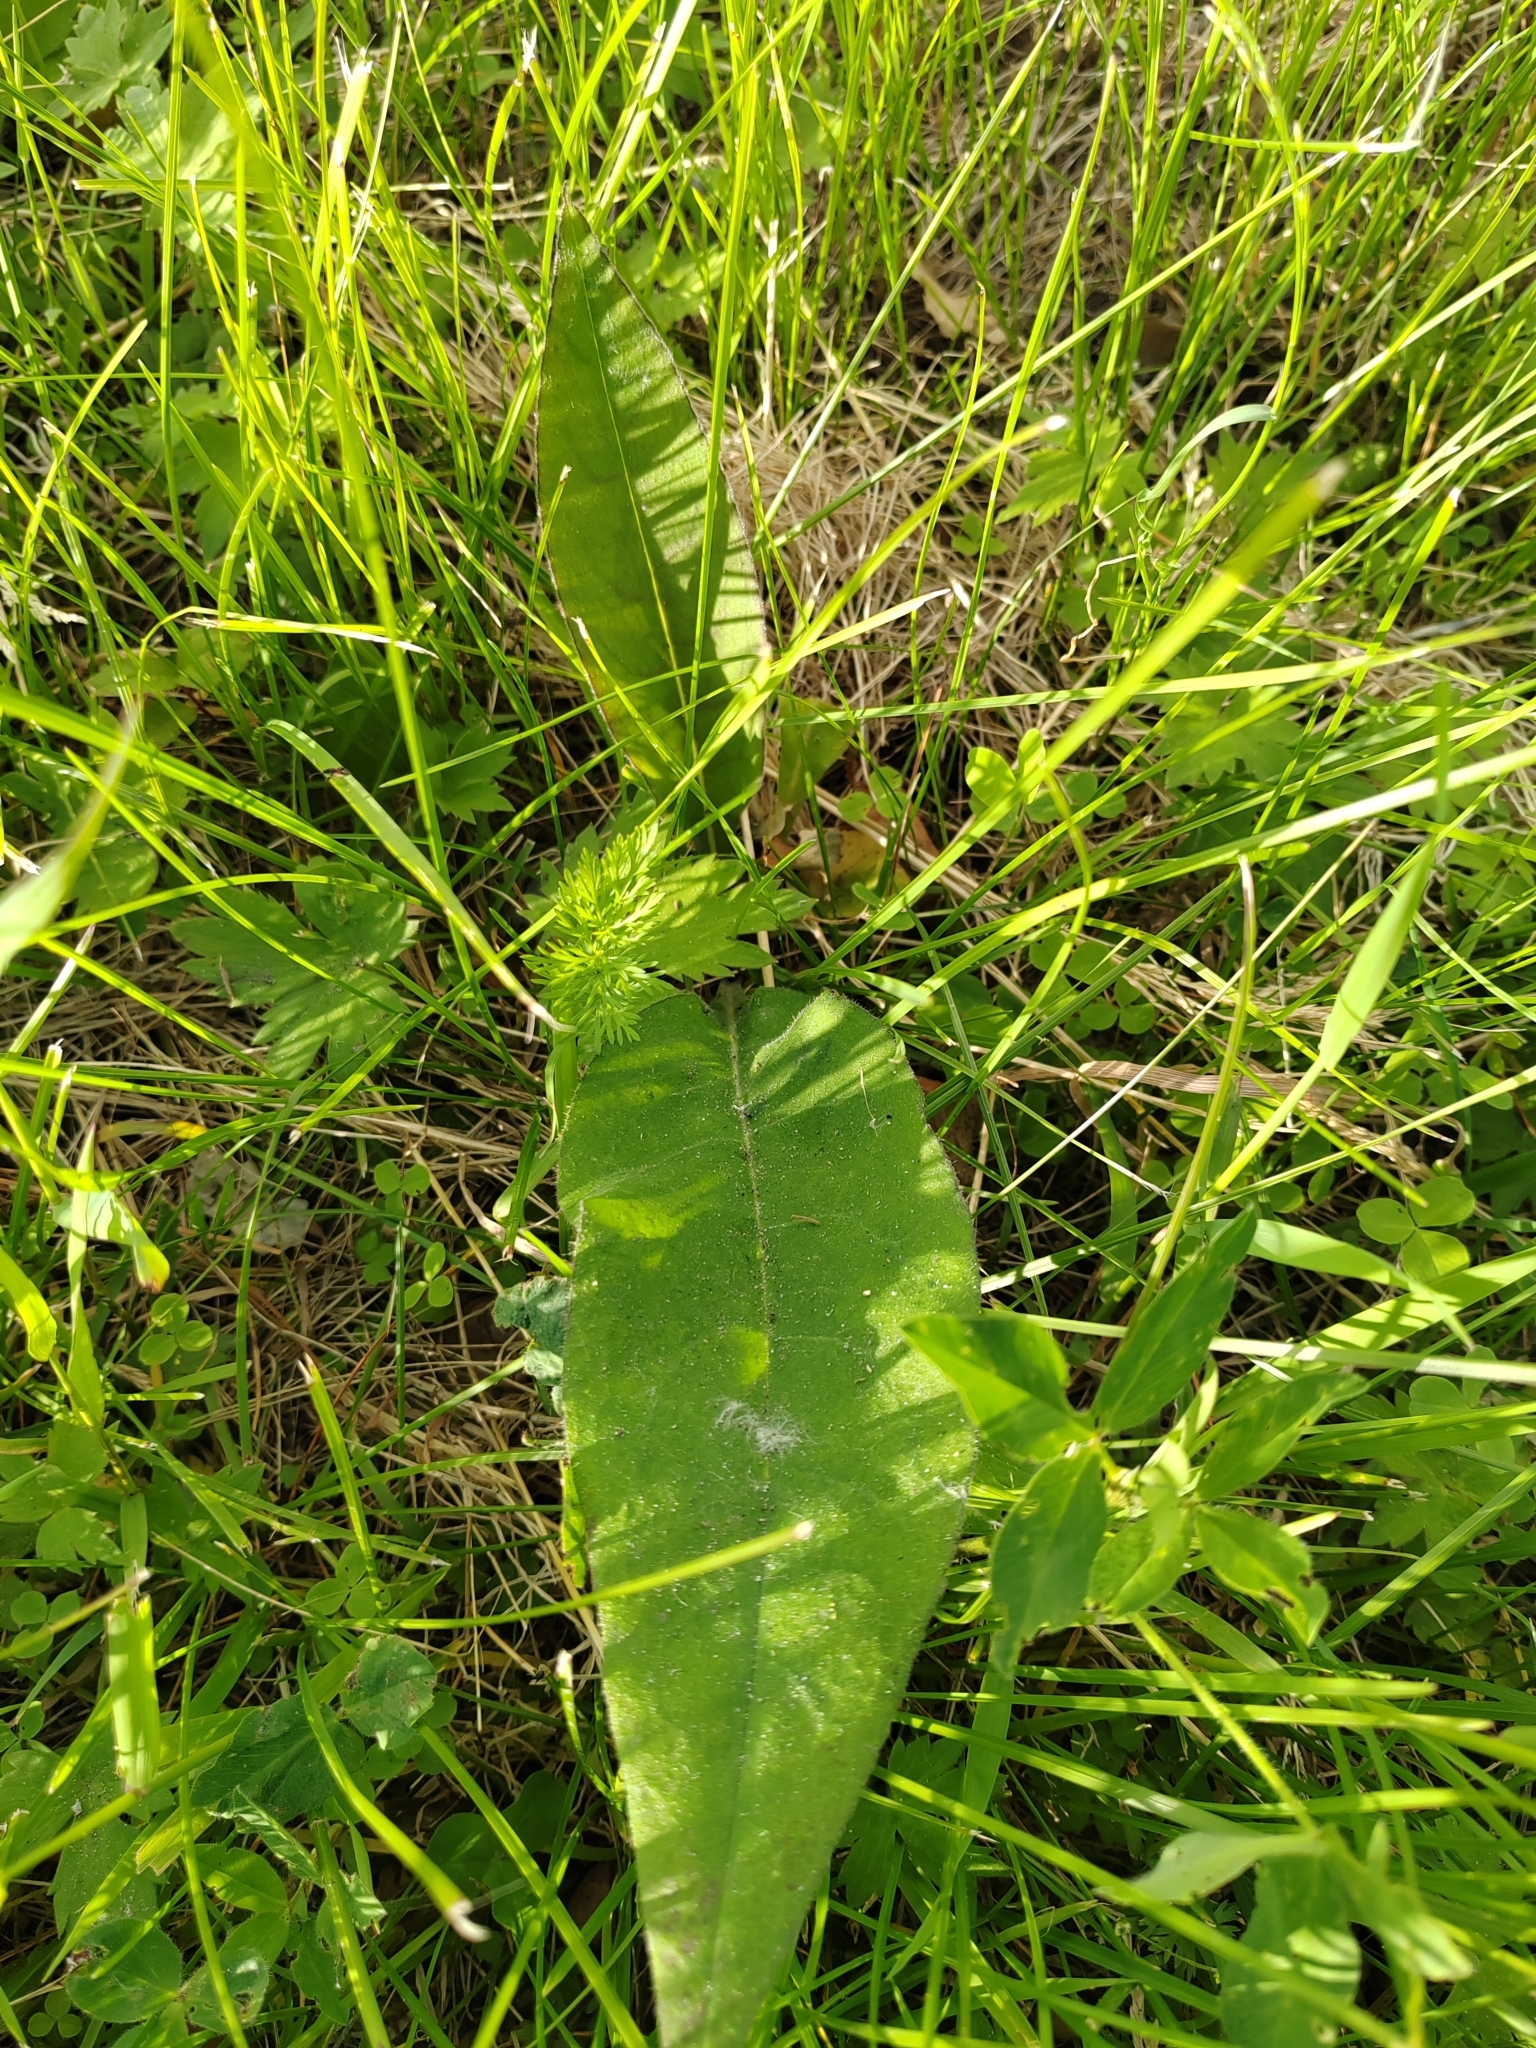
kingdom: Plantae
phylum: Tracheophyta
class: Magnoliopsida
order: Boraginales
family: Boraginaceae
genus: Pulmonaria
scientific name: Pulmonaria mollis
